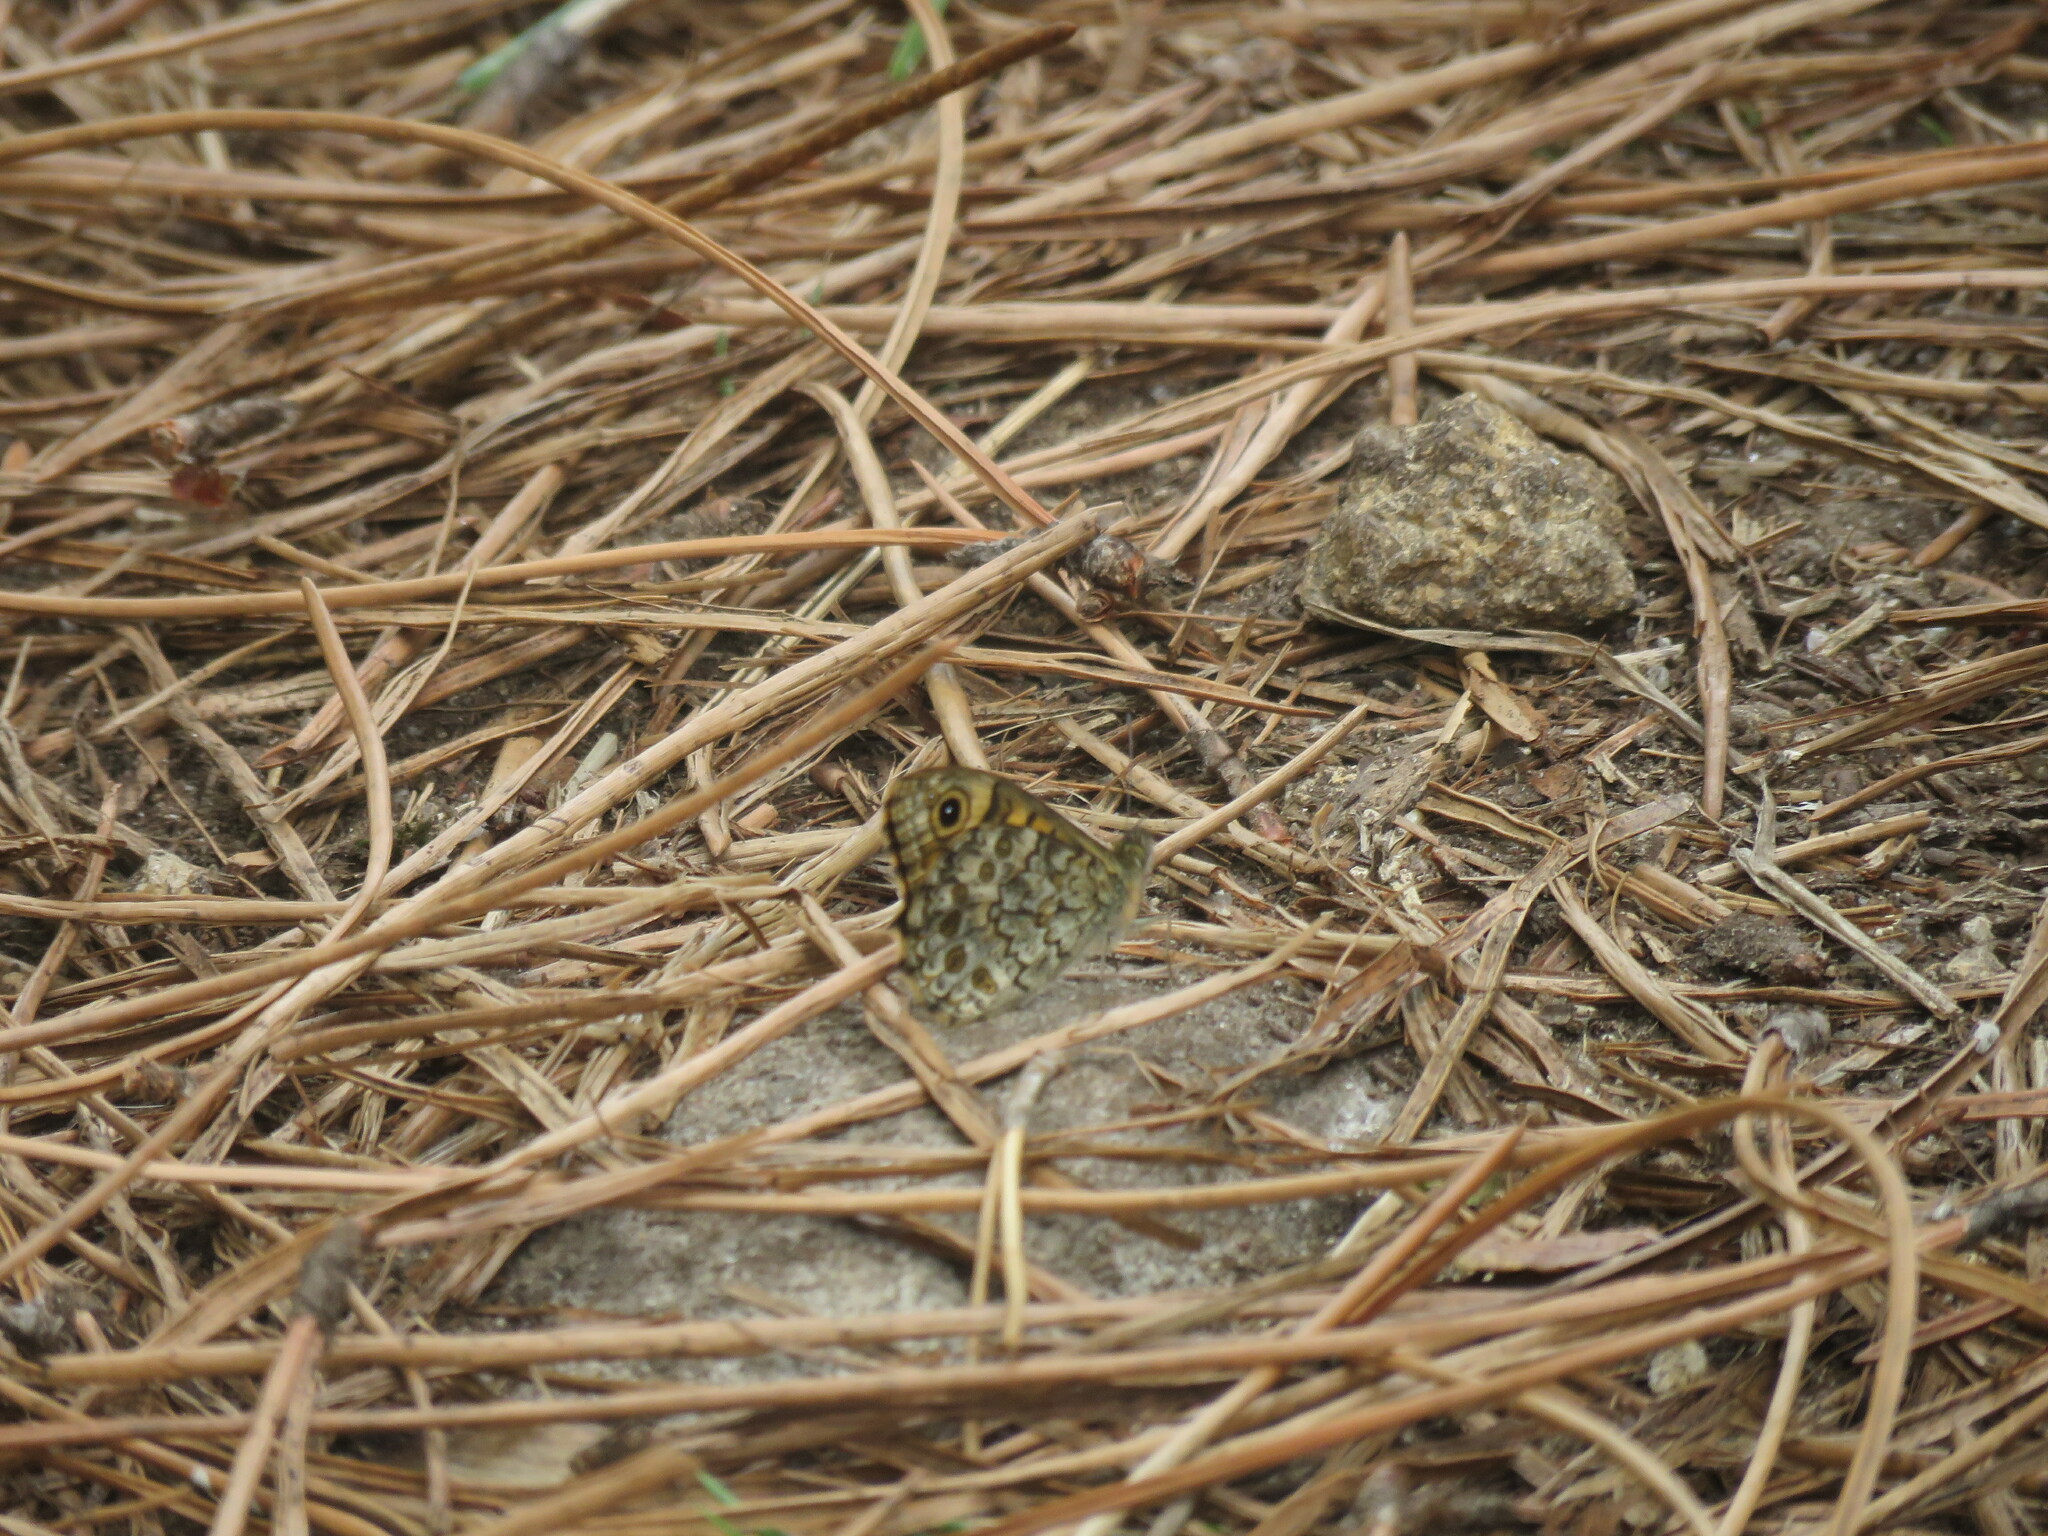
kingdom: Animalia
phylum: Arthropoda
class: Insecta
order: Lepidoptera
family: Nymphalidae
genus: Pararge
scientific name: Pararge Lasiommata megera
